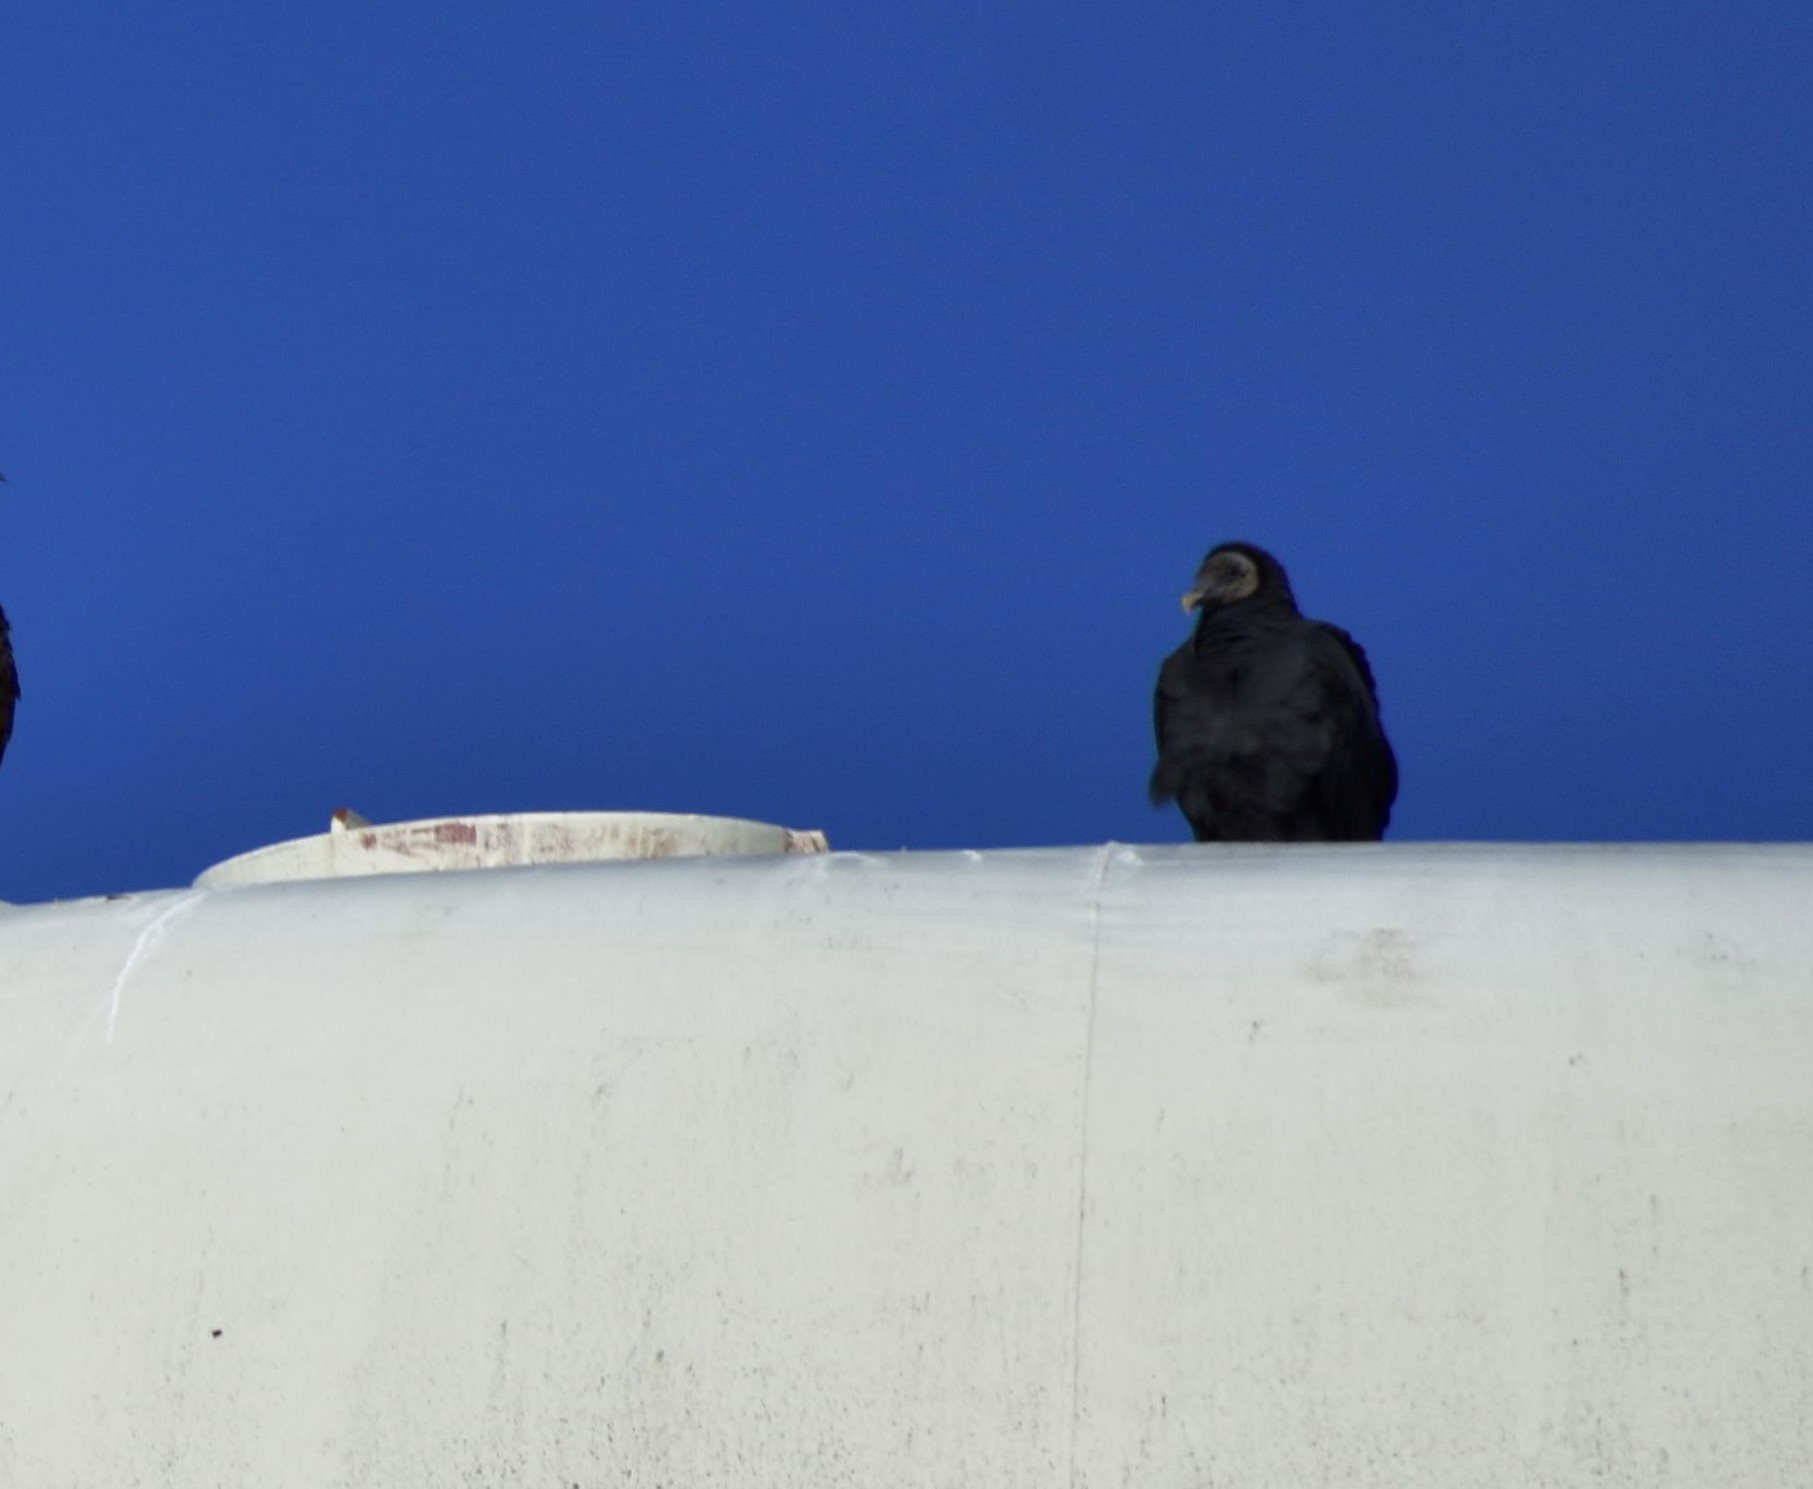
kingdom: Animalia
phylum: Chordata
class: Aves
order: Accipitriformes
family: Cathartidae
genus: Cathartes
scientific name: Cathartes aura
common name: Turkey vulture
